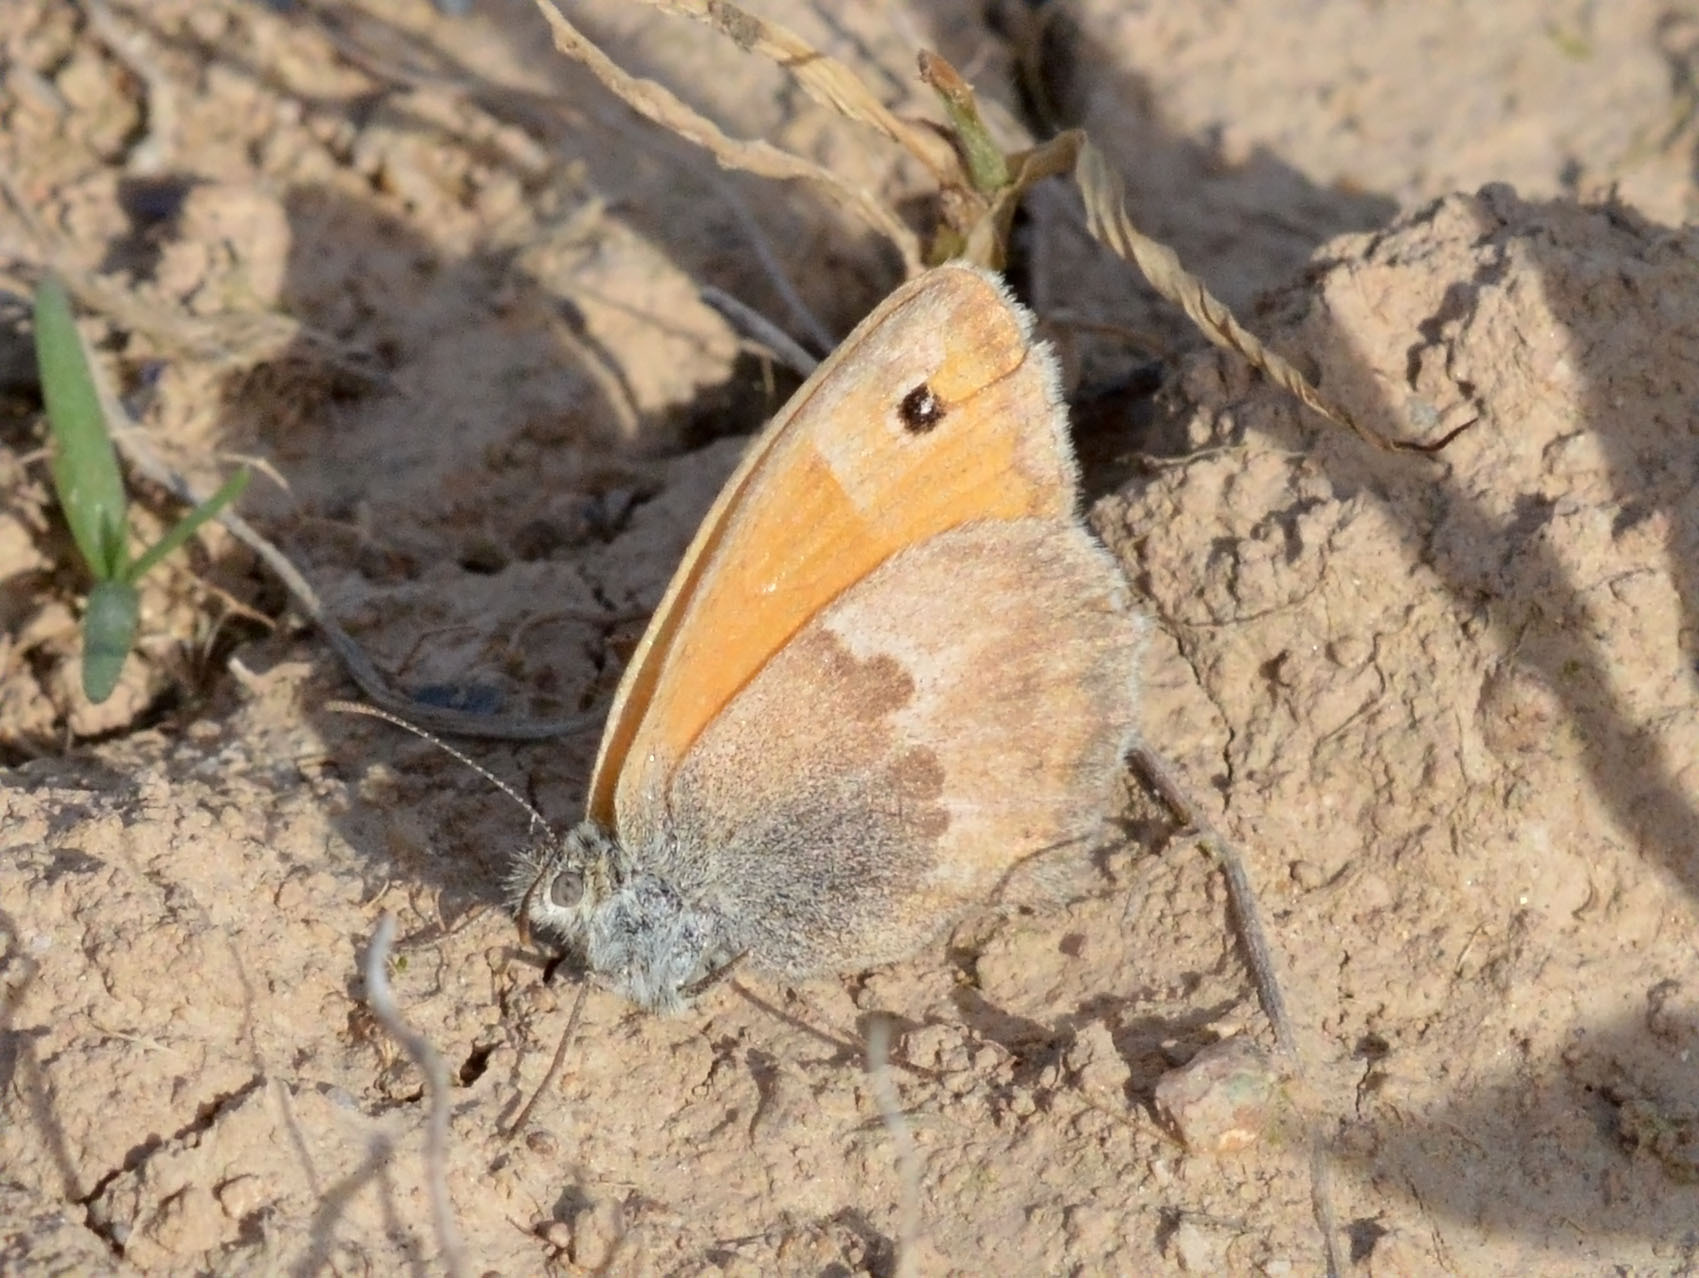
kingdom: Animalia
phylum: Arthropoda
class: Insecta
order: Lepidoptera
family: Nymphalidae
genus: Coenonympha
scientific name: Coenonympha pamphilus
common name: Small heath
